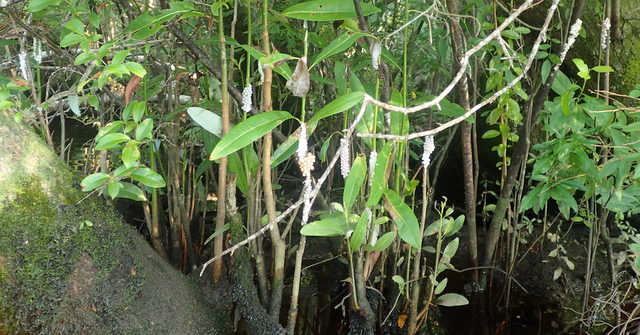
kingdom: Animalia
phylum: Mollusca
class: Gastropoda
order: Architaenioglossa
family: Ampullariidae
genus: Pomacea
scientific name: Pomacea paludosa
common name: Florida applesnail
